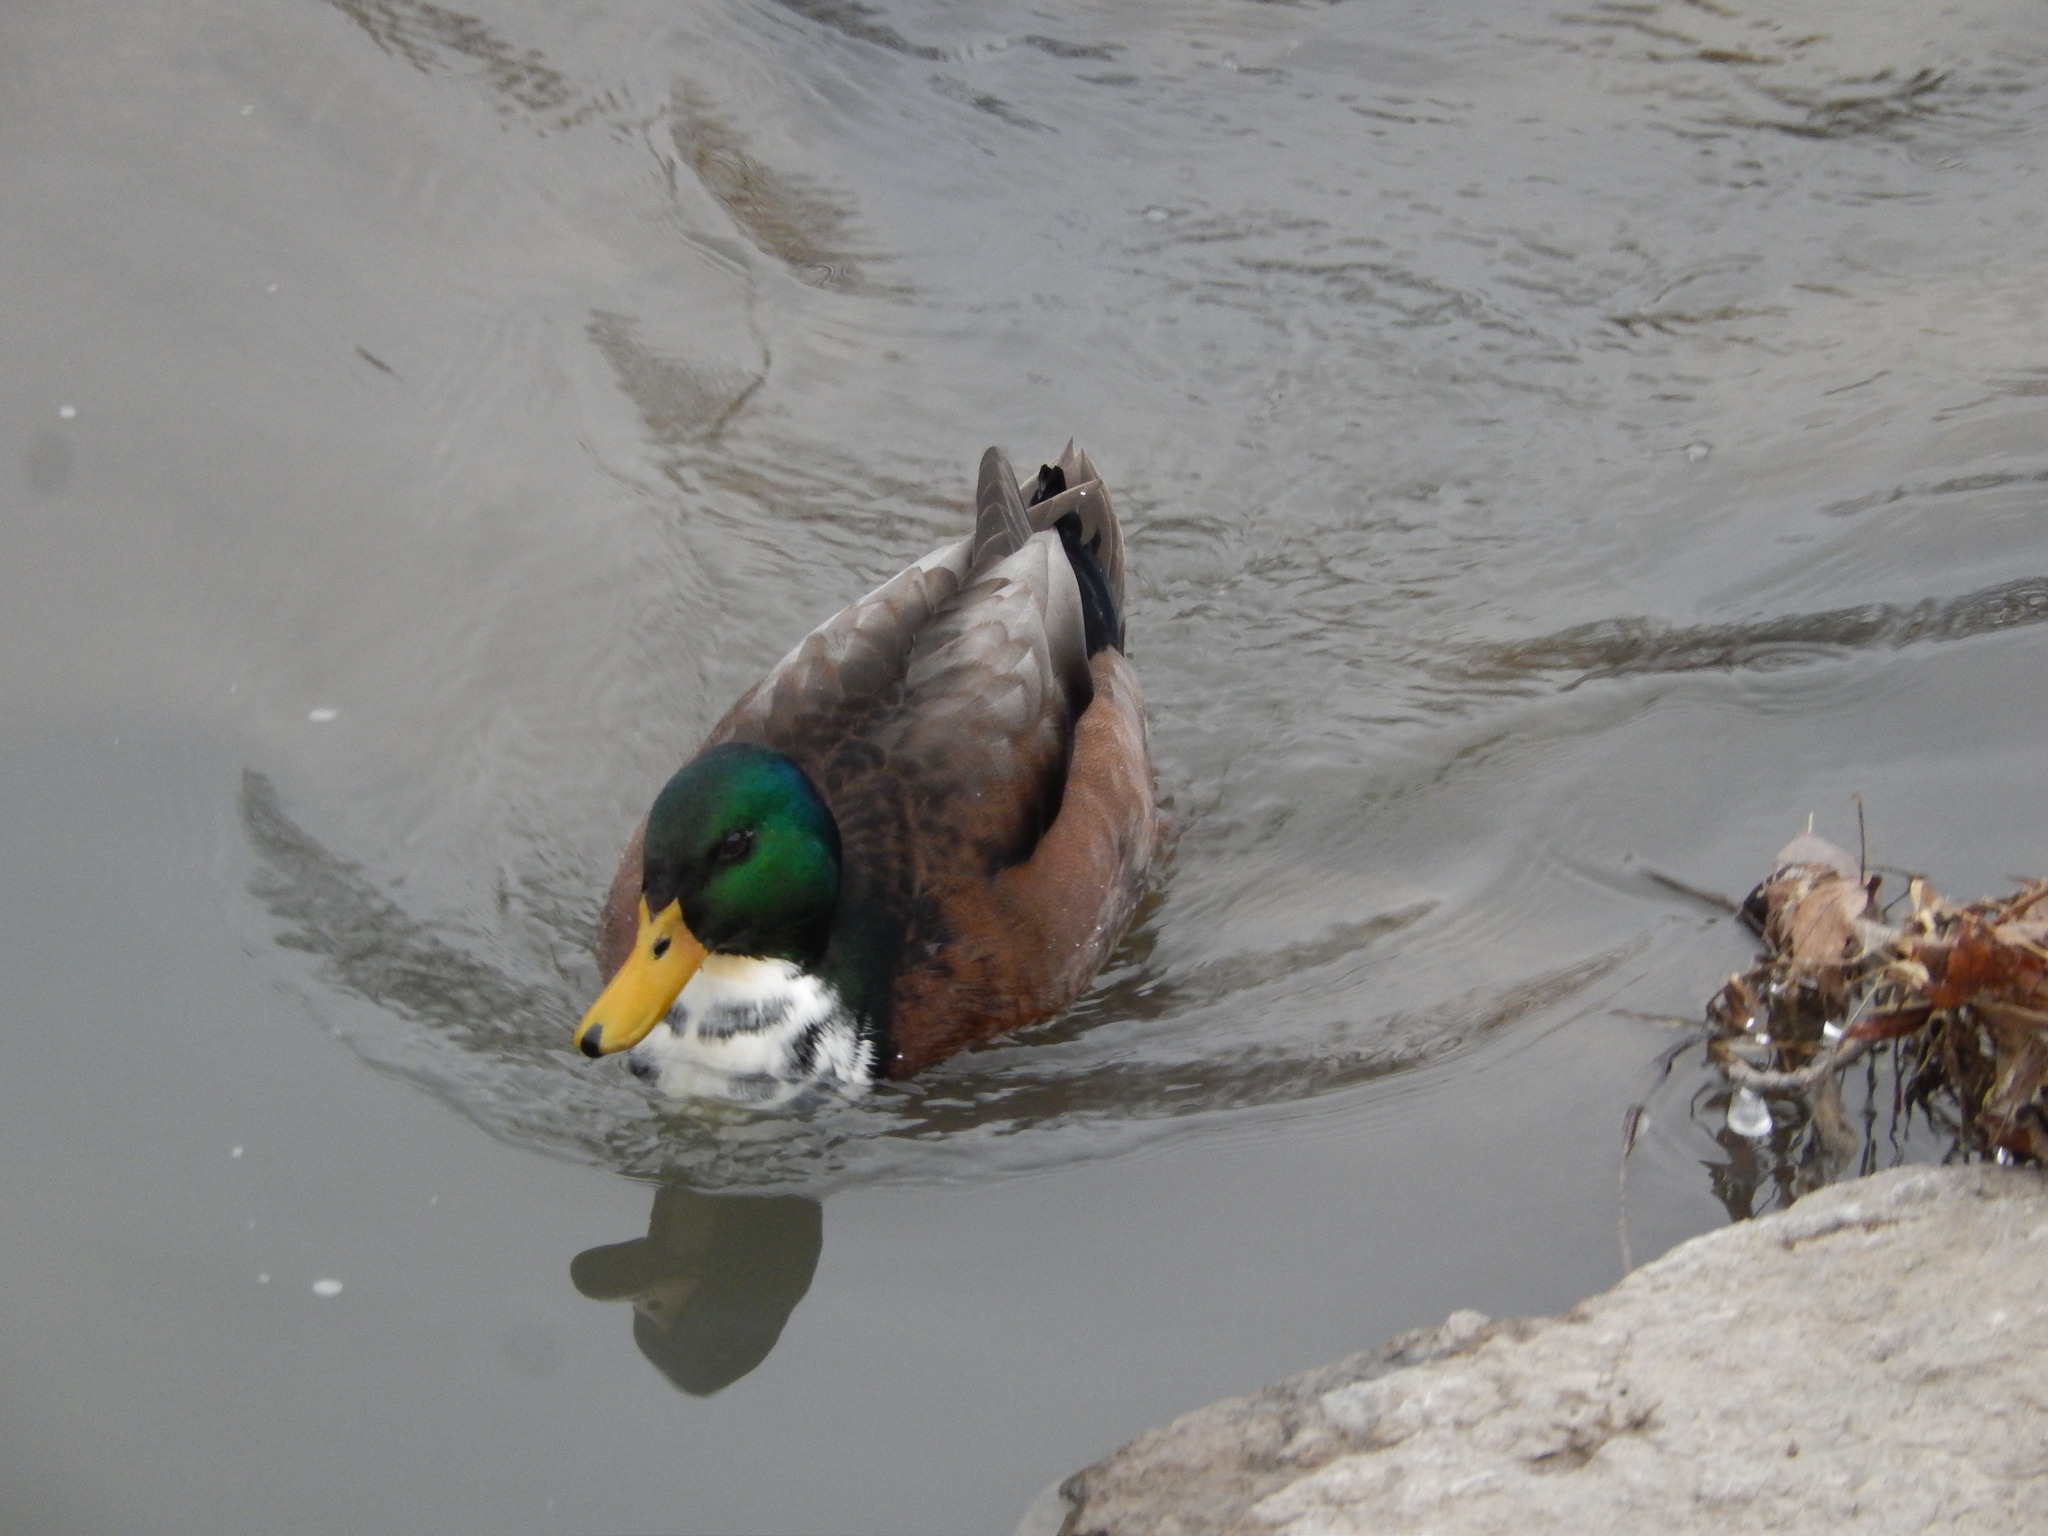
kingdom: Animalia
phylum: Chordata
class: Aves
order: Anseriformes
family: Anatidae
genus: Anas
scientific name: Anas platyrhynchos
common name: Mallard
